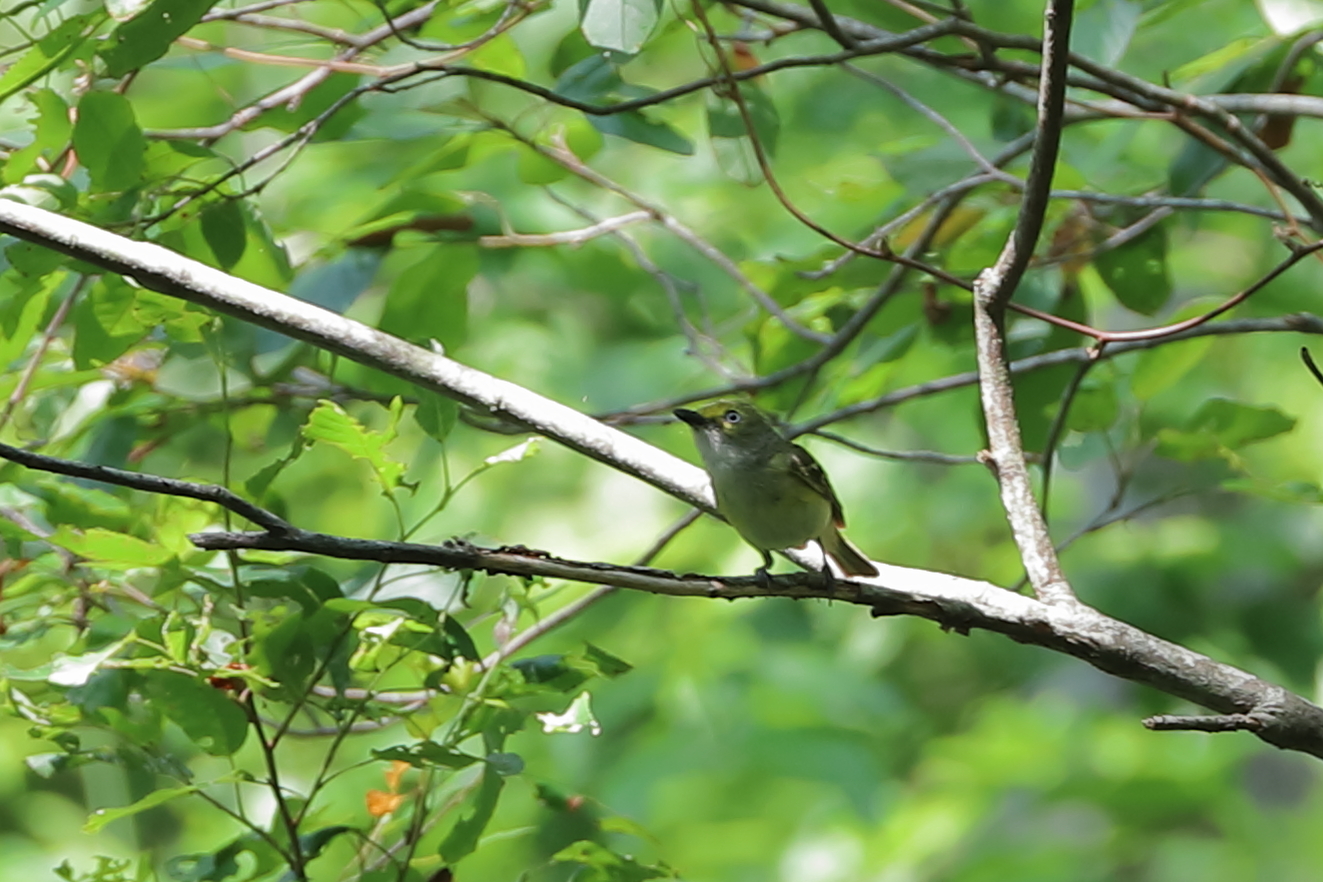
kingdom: Animalia
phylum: Chordata
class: Aves
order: Passeriformes
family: Vireonidae
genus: Vireo
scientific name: Vireo griseus
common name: White-eyed vireo
